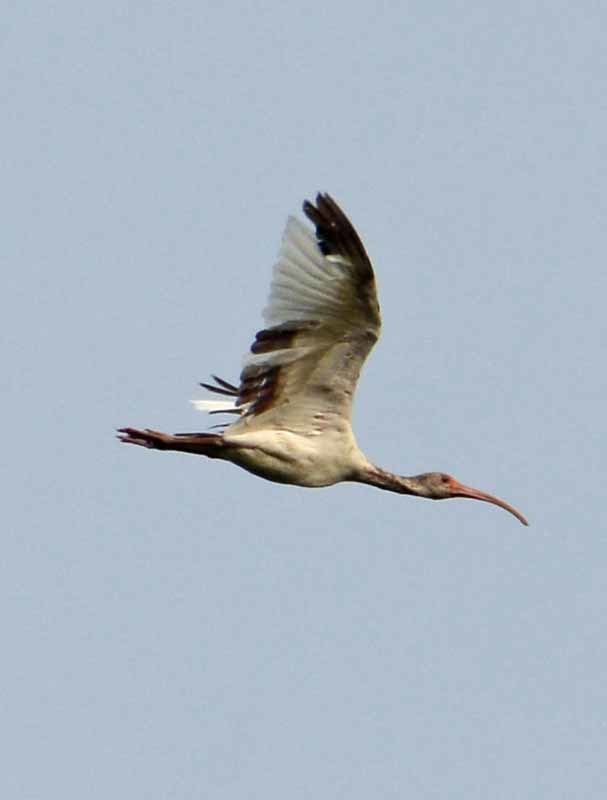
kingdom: Animalia
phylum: Chordata
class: Aves
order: Pelecaniformes
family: Threskiornithidae
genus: Eudocimus
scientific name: Eudocimus albus
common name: White ibis
